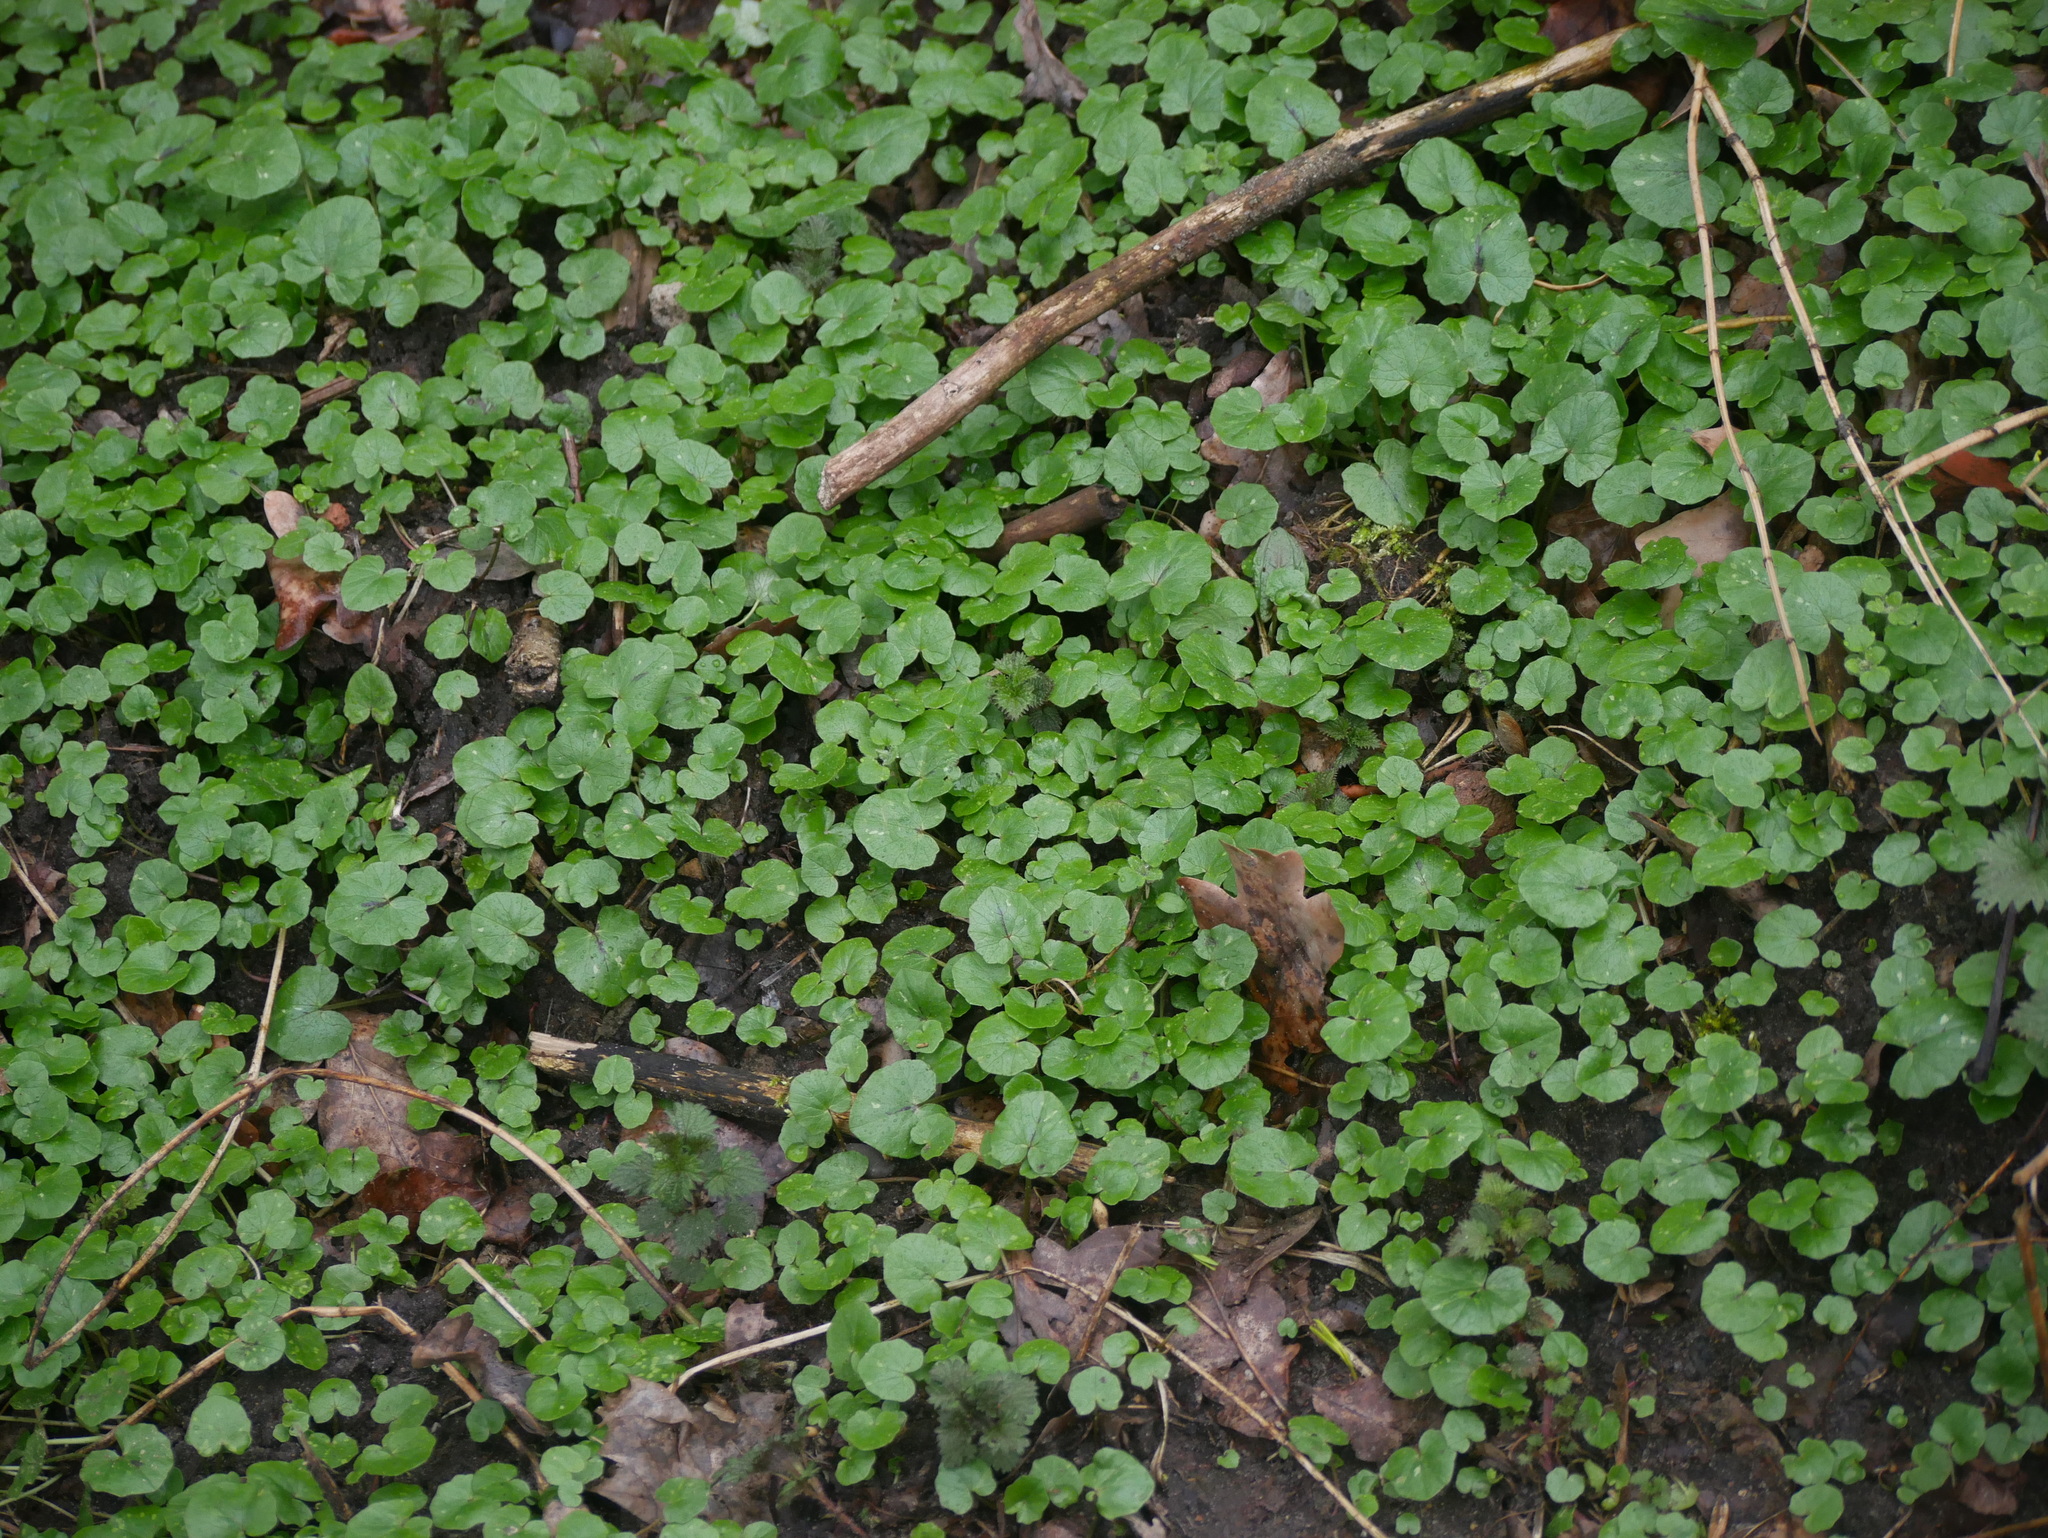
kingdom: Plantae
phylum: Tracheophyta
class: Magnoliopsida
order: Ranunculales
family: Ranunculaceae
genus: Ficaria
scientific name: Ficaria verna
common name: Lesser celandine
